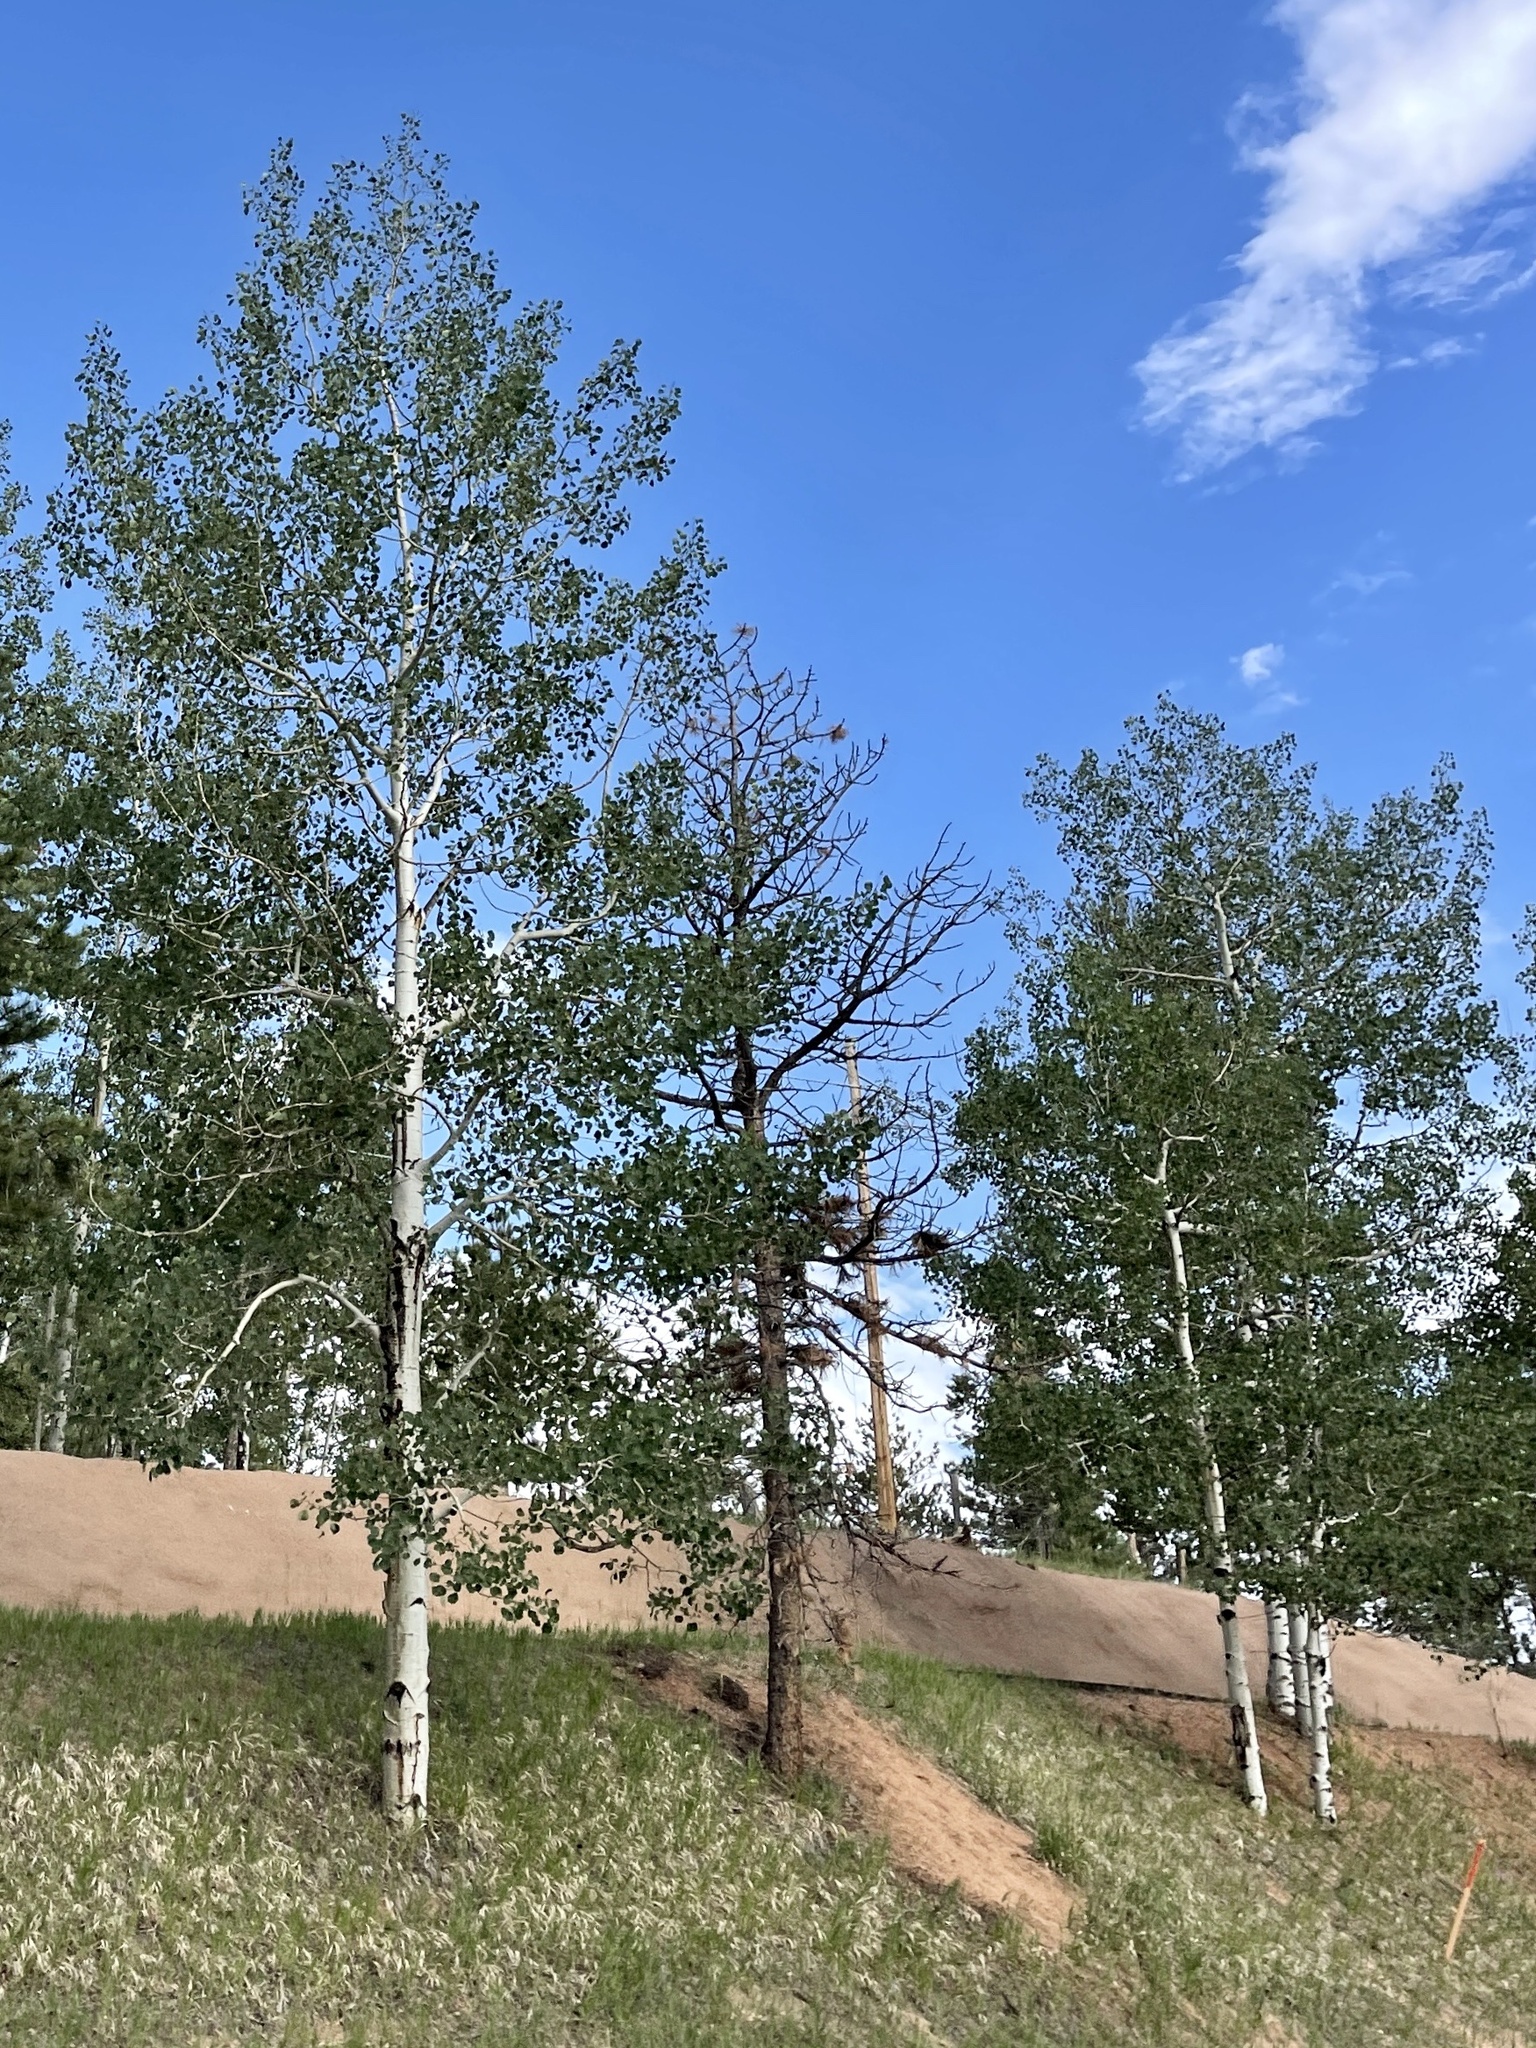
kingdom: Plantae
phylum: Tracheophyta
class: Magnoliopsida
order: Malpighiales
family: Salicaceae
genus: Populus
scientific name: Populus tremuloides
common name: Quaking aspen
